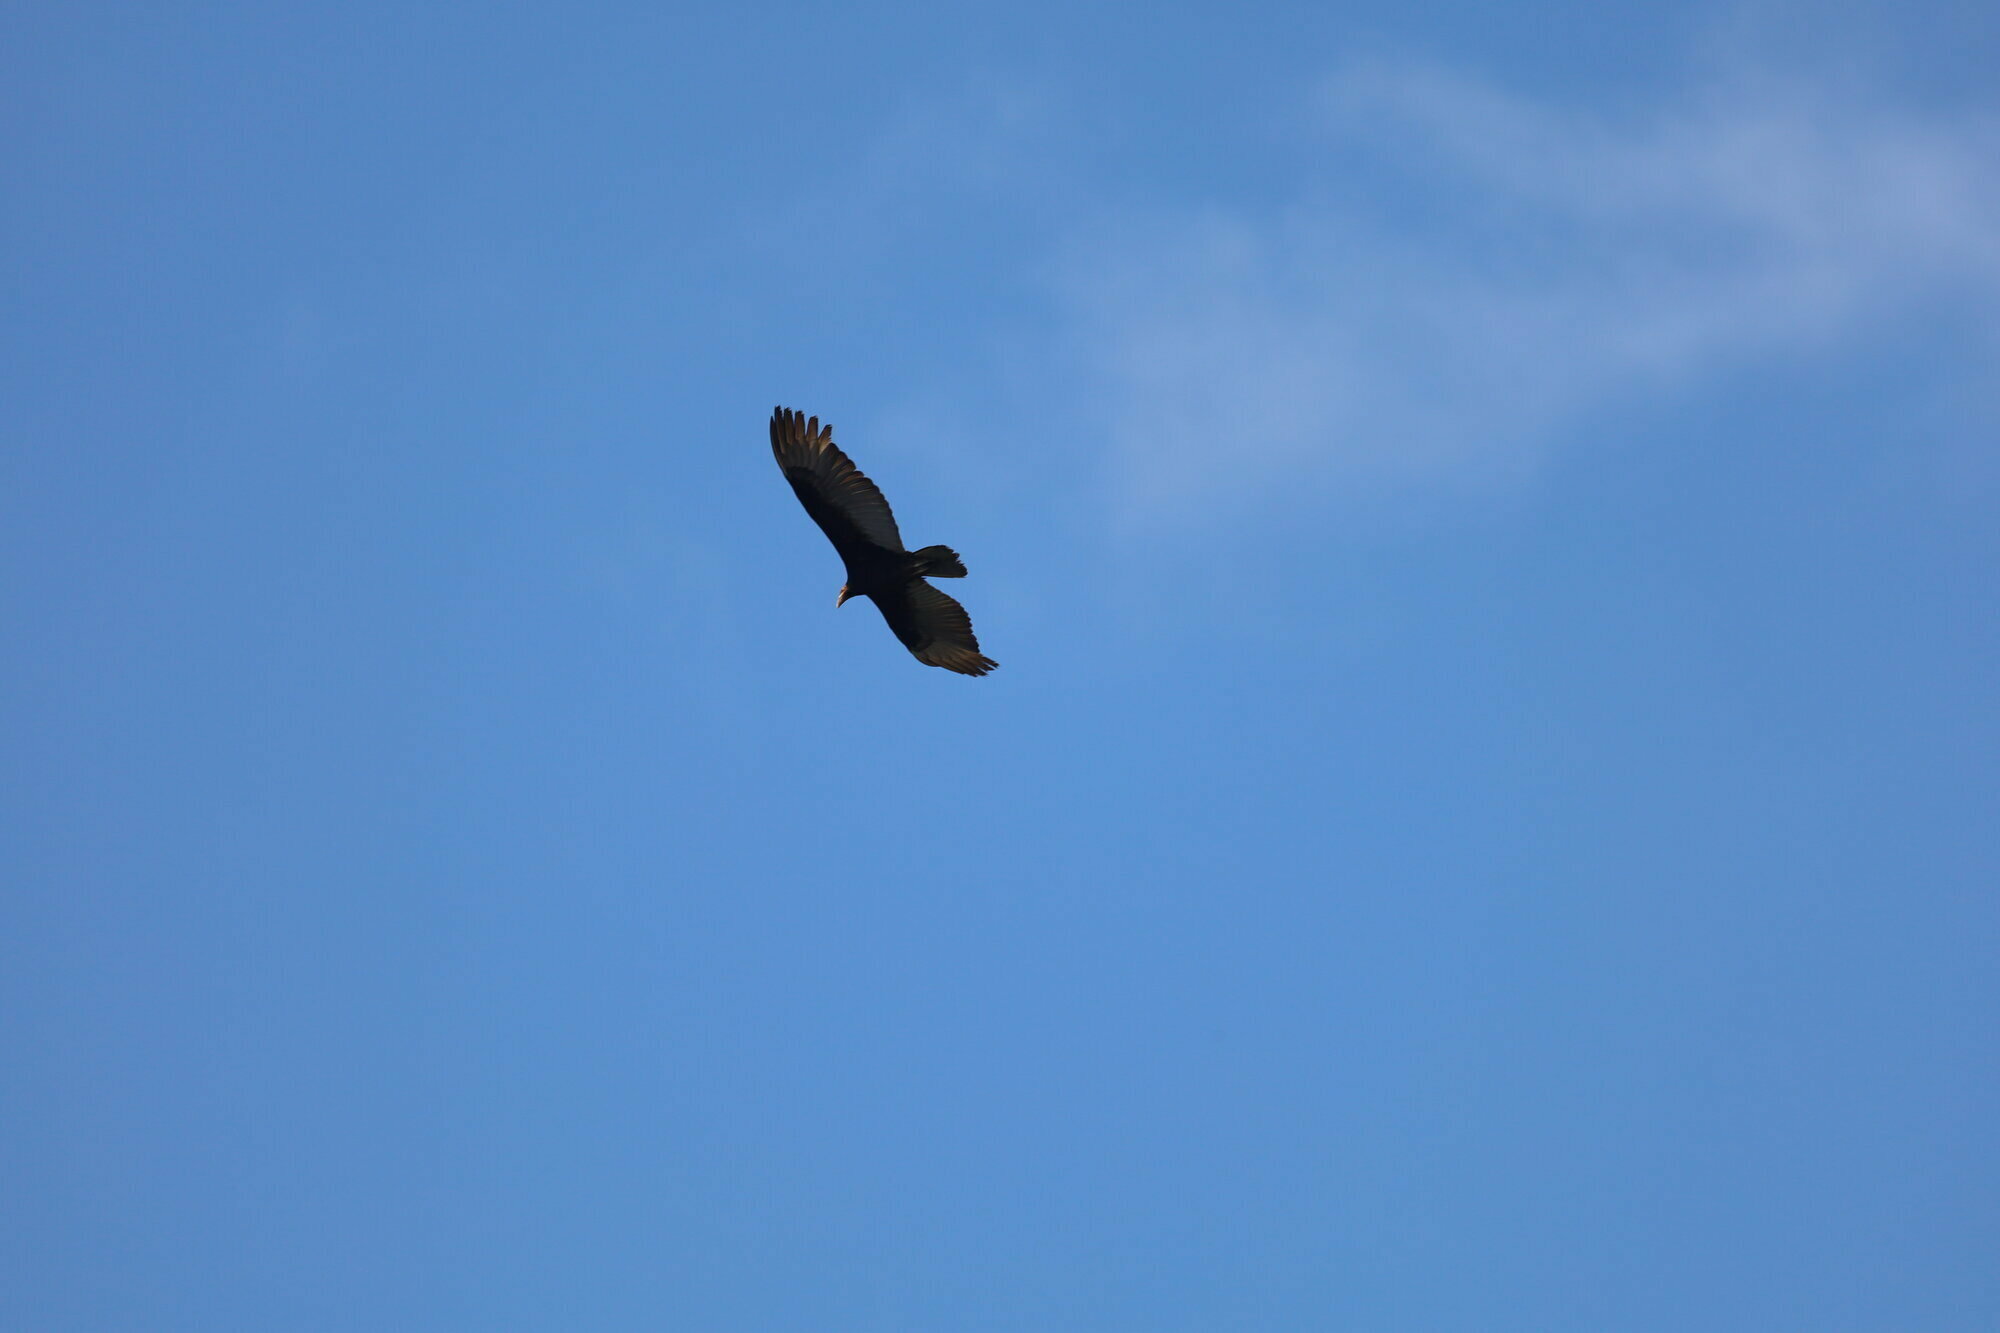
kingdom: Animalia
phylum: Chordata
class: Aves
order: Accipitriformes
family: Cathartidae
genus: Cathartes
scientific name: Cathartes melambrotus
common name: Greater yellow-headed vulture
